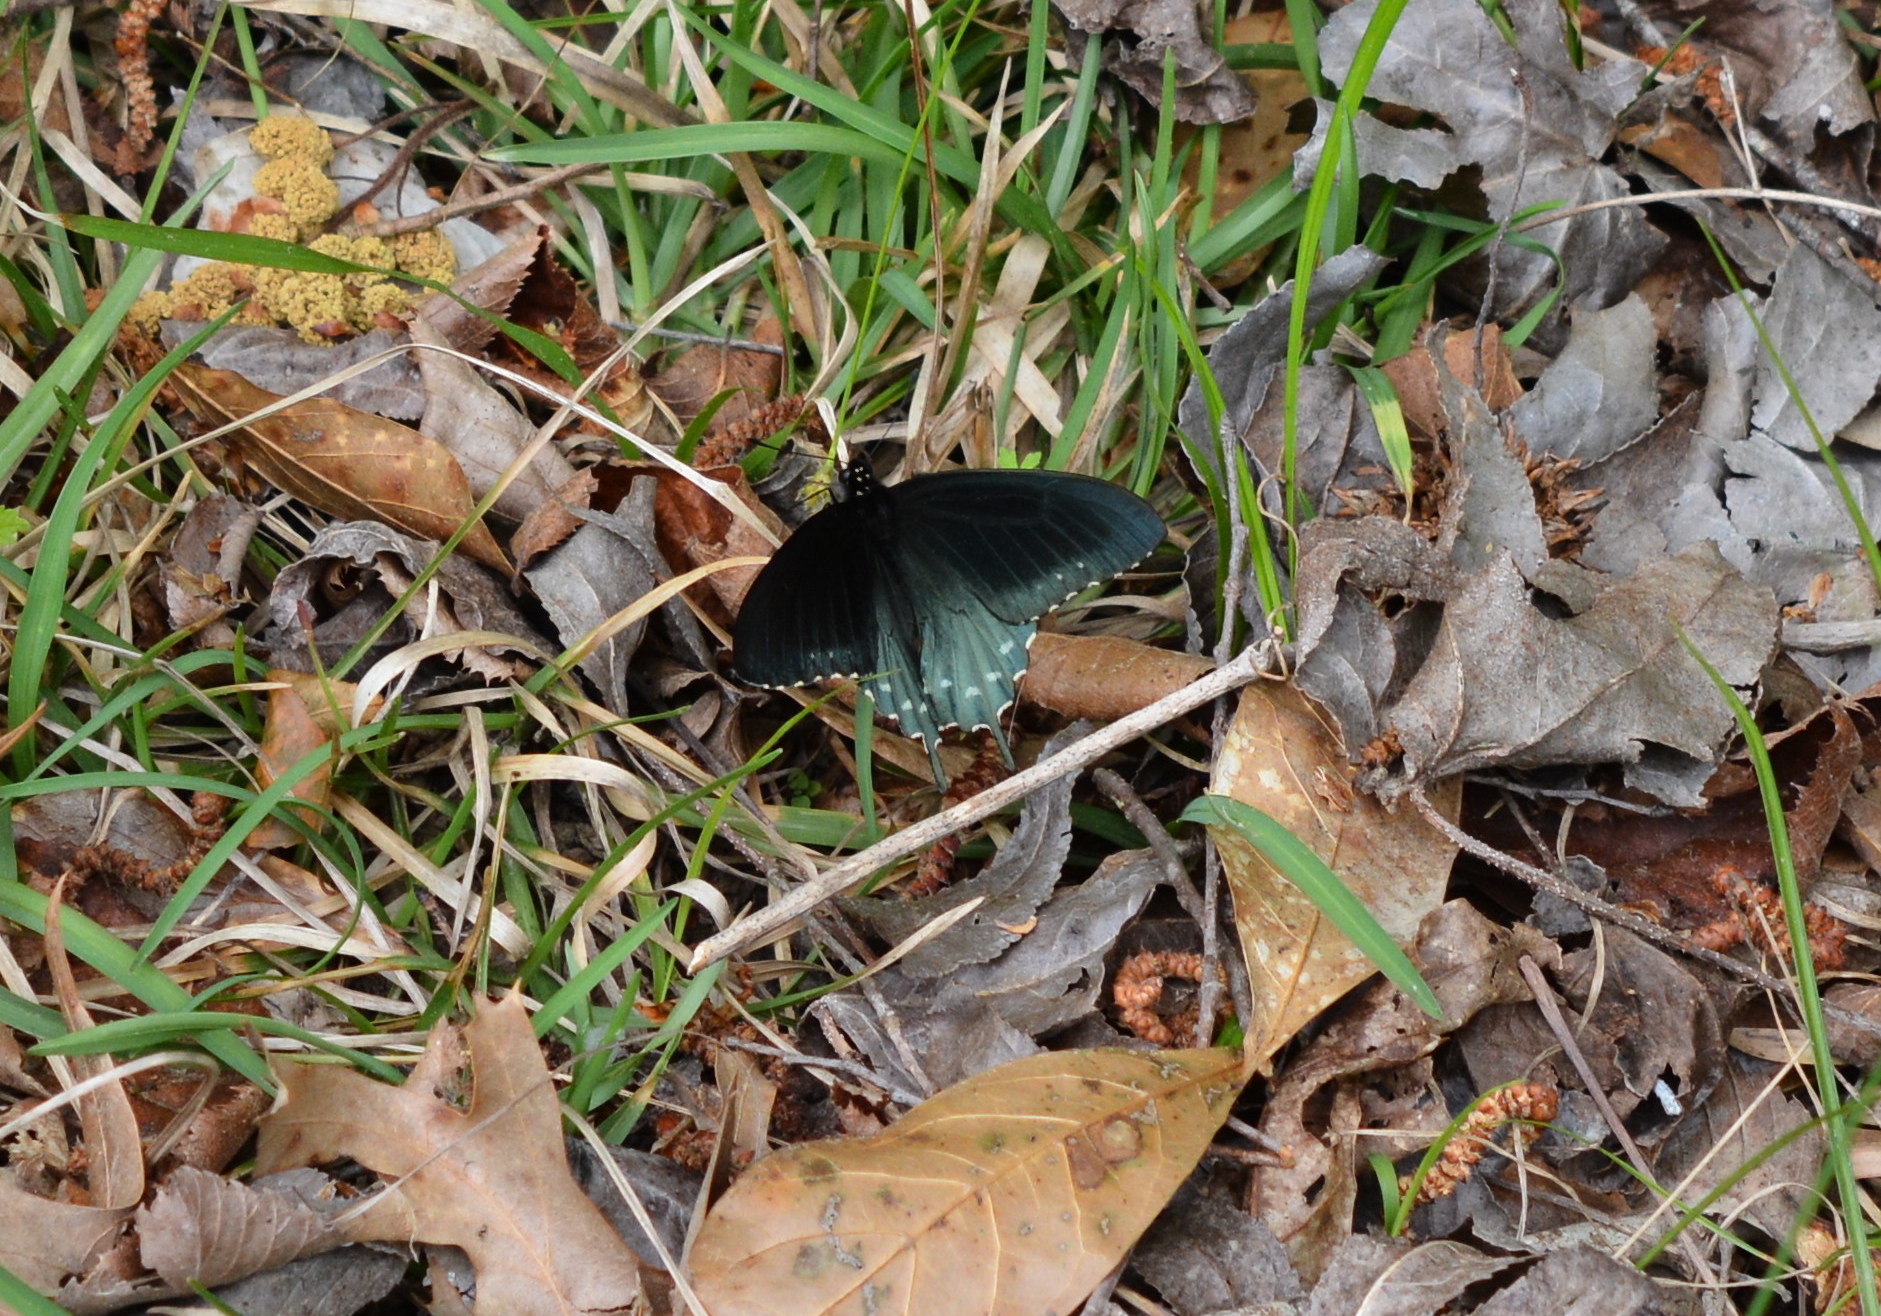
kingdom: Animalia
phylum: Arthropoda
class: Insecta
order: Lepidoptera
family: Papilionidae
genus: Battus
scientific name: Battus philenor
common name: Pipevine swallowtail
